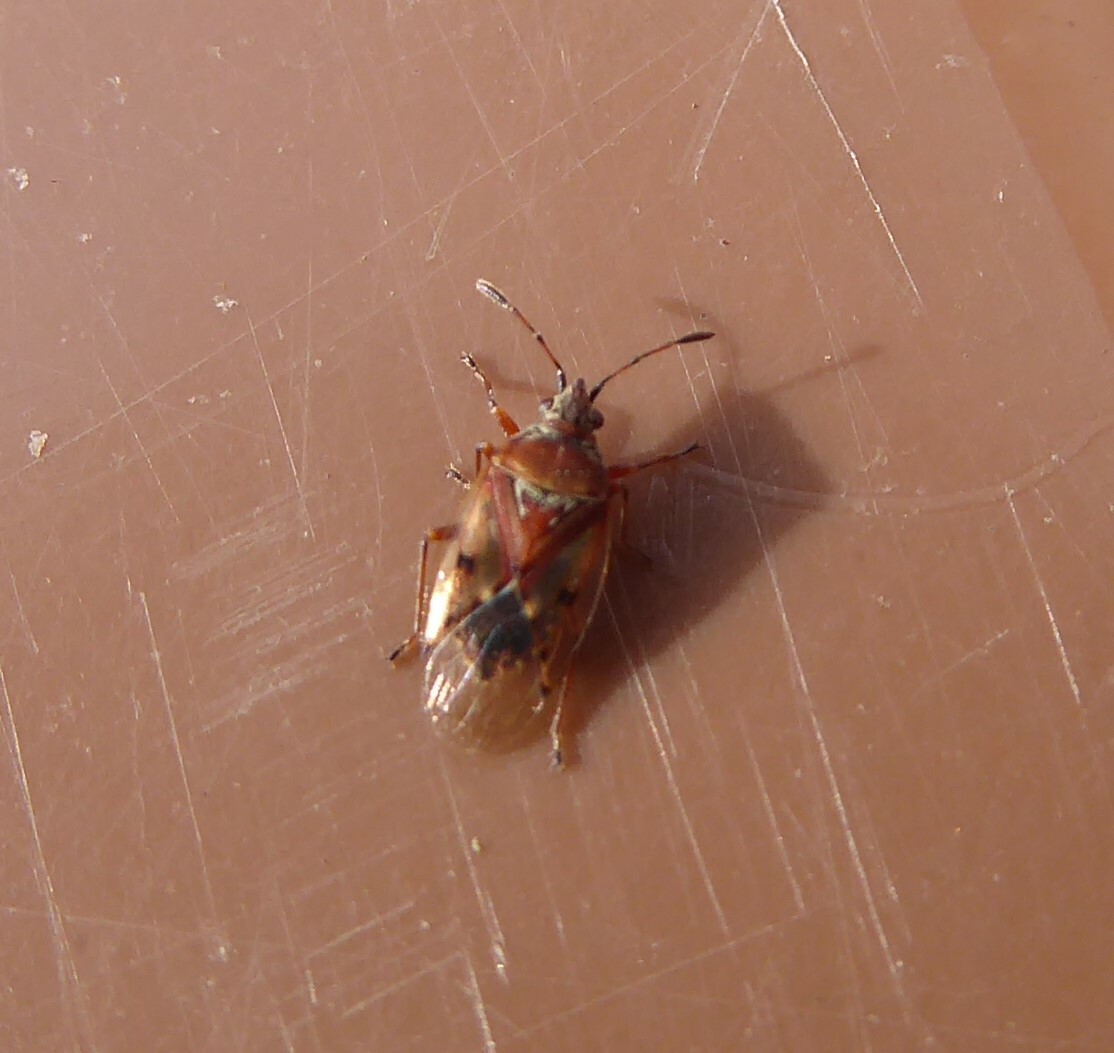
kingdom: Animalia
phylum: Arthropoda
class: Insecta
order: Hemiptera
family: Lygaeidae
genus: Kleidocerys
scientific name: Kleidocerys resedae
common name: Birch catkin bug
